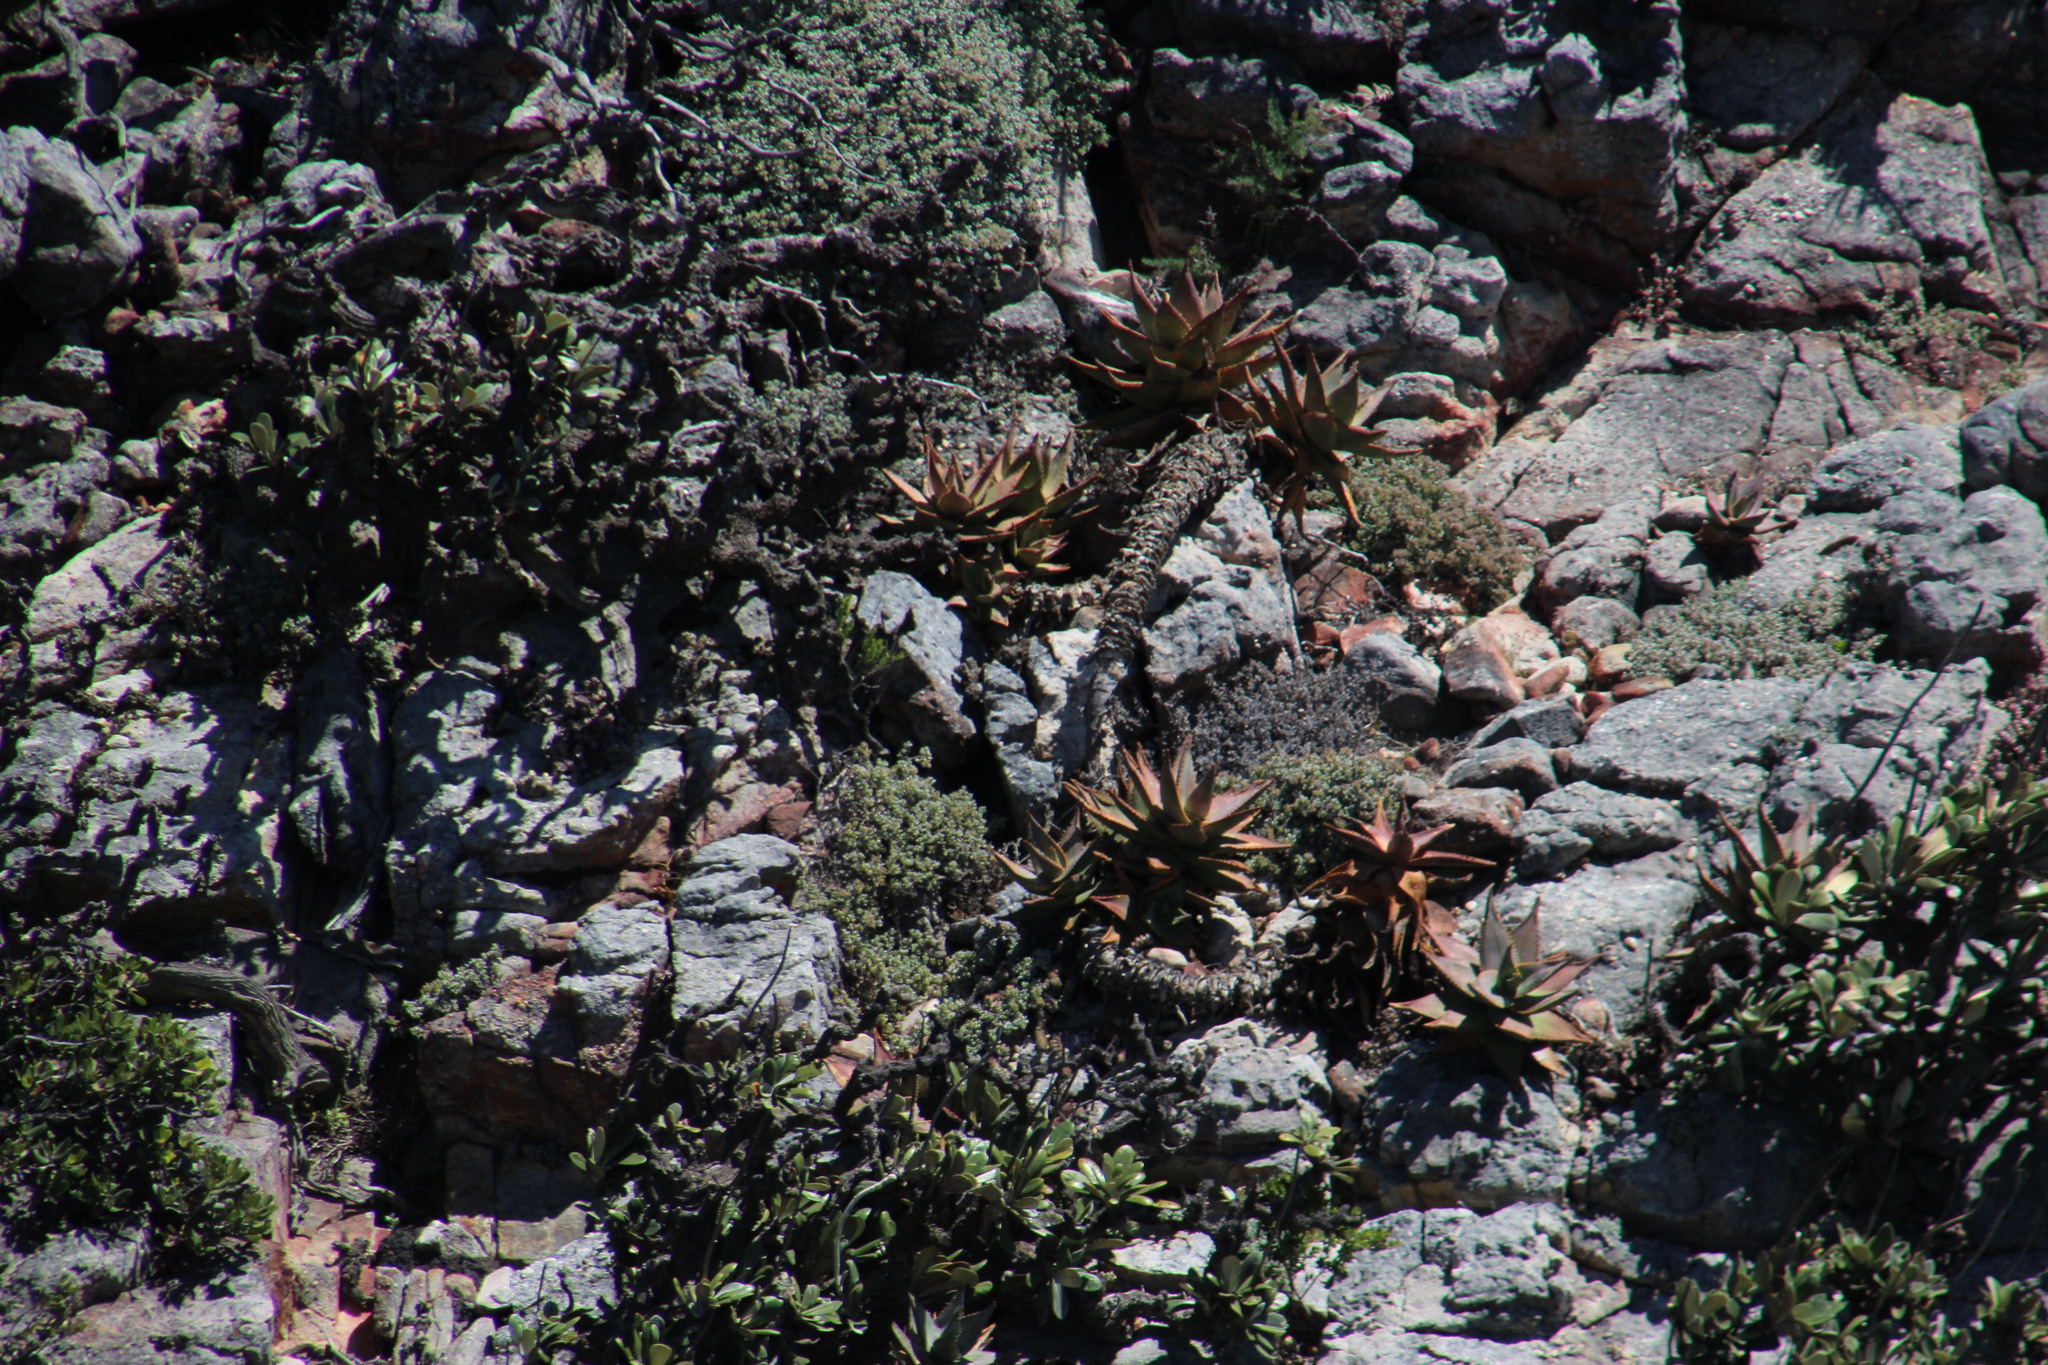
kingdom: Plantae
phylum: Tracheophyta
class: Liliopsida
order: Asparagales
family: Asphodelaceae
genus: Aloe
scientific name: Aloe perfoliata
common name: Mitra aloe
